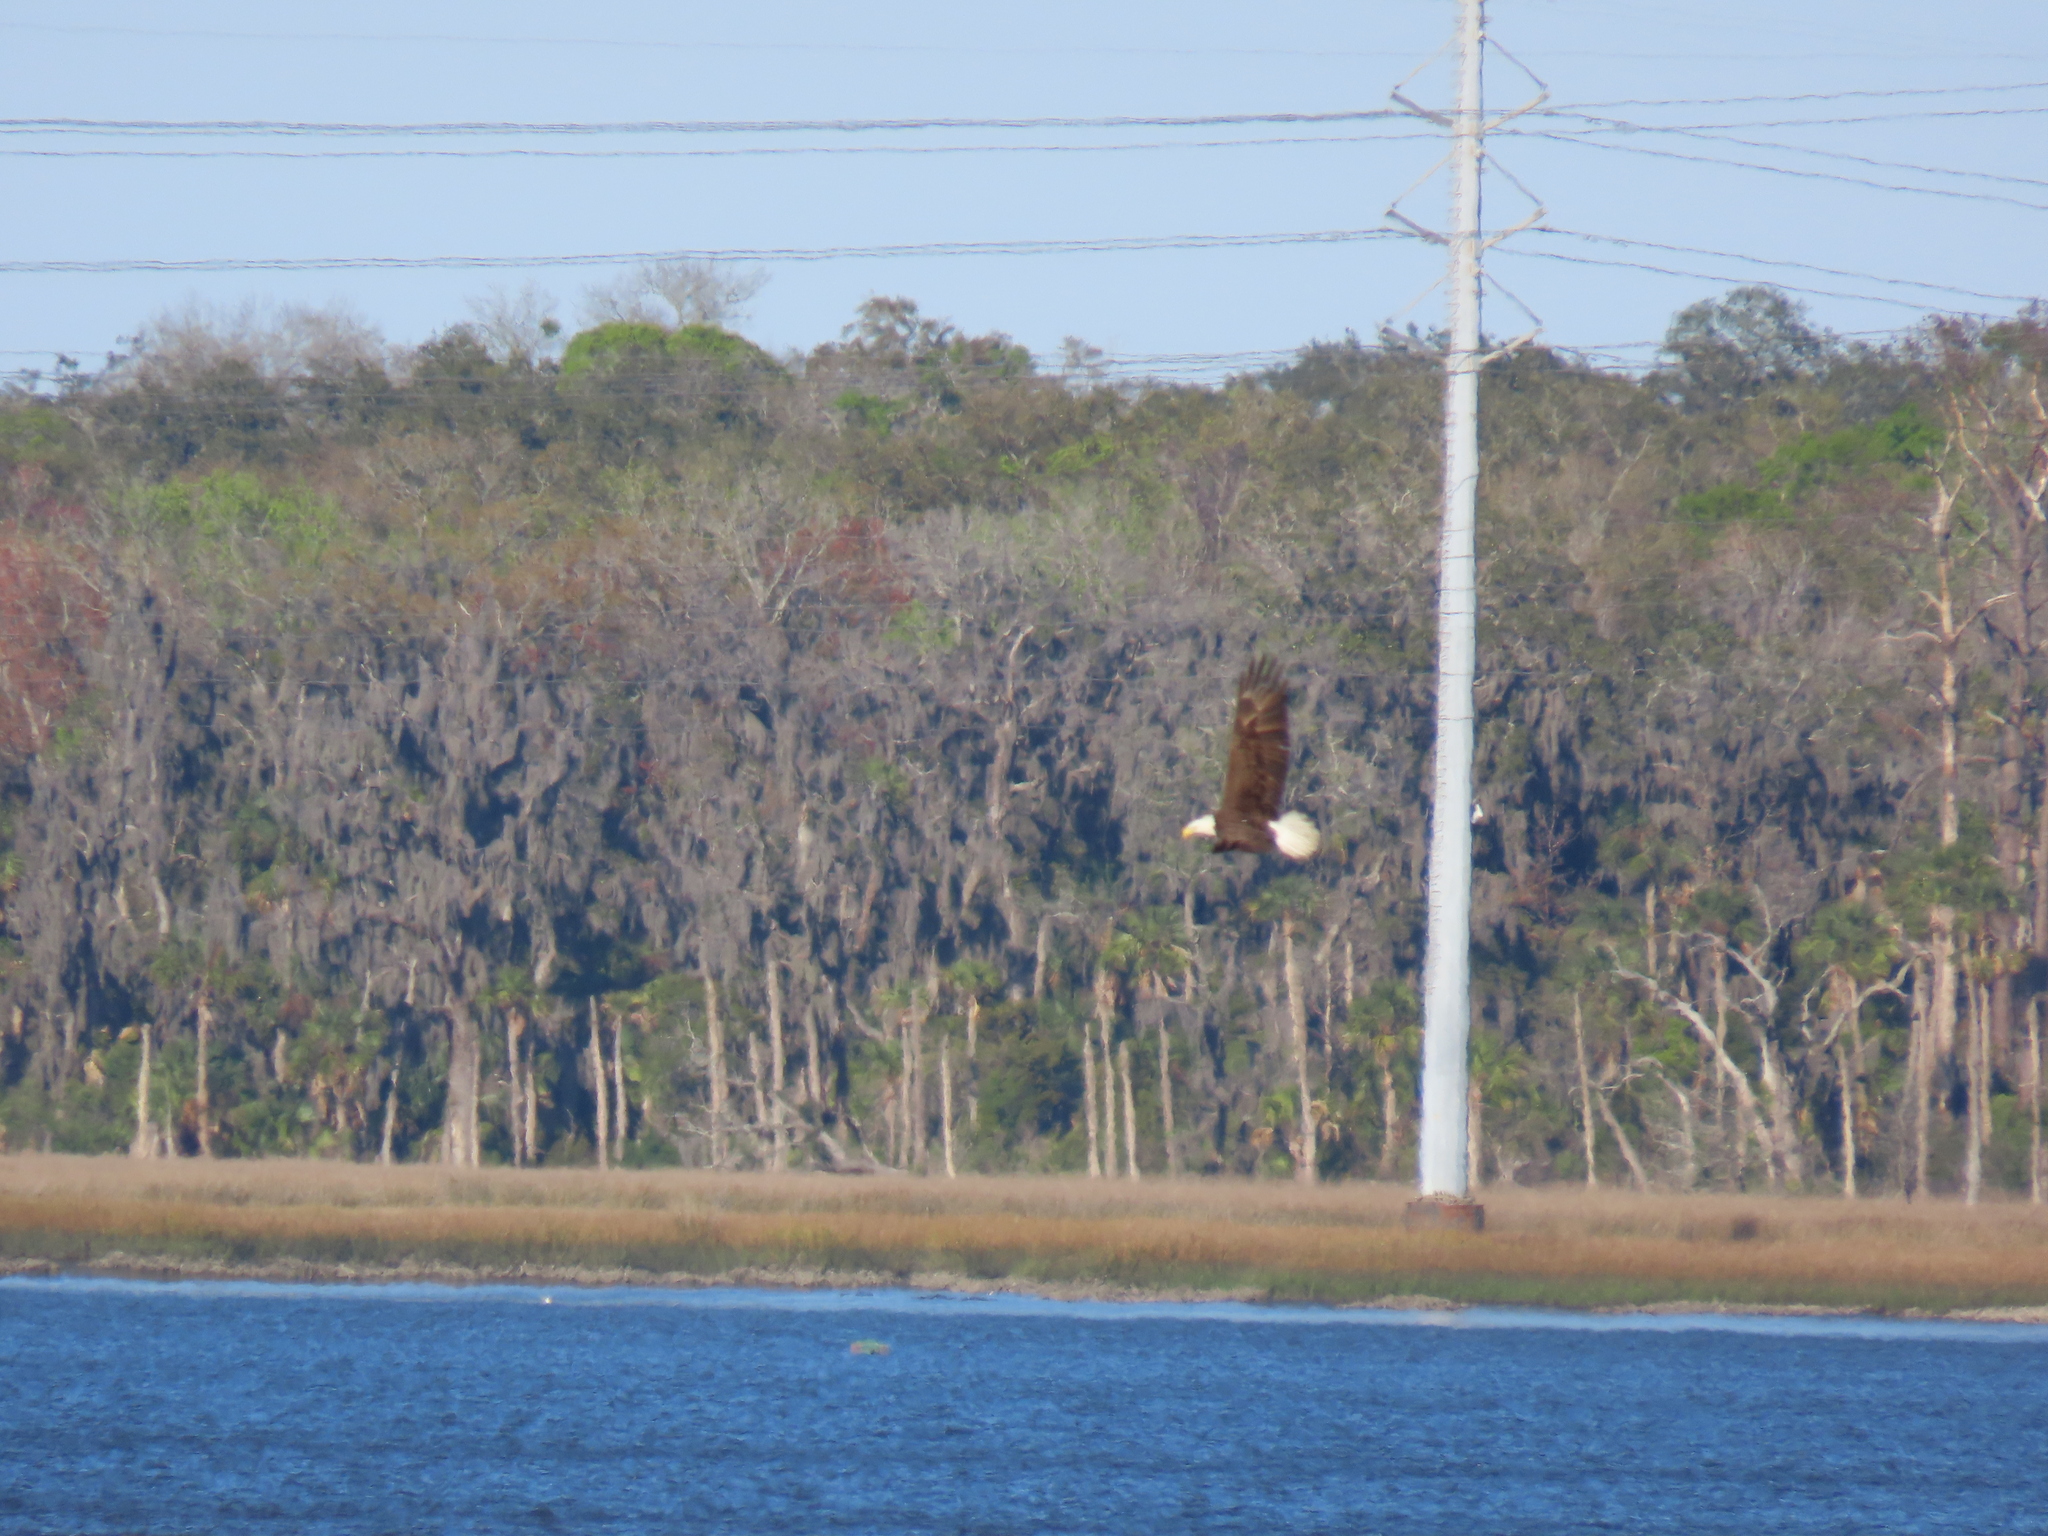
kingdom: Animalia
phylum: Chordata
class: Aves
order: Accipitriformes
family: Accipitridae
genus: Haliaeetus
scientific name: Haliaeetus leucocephalus
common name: Bald eagle
